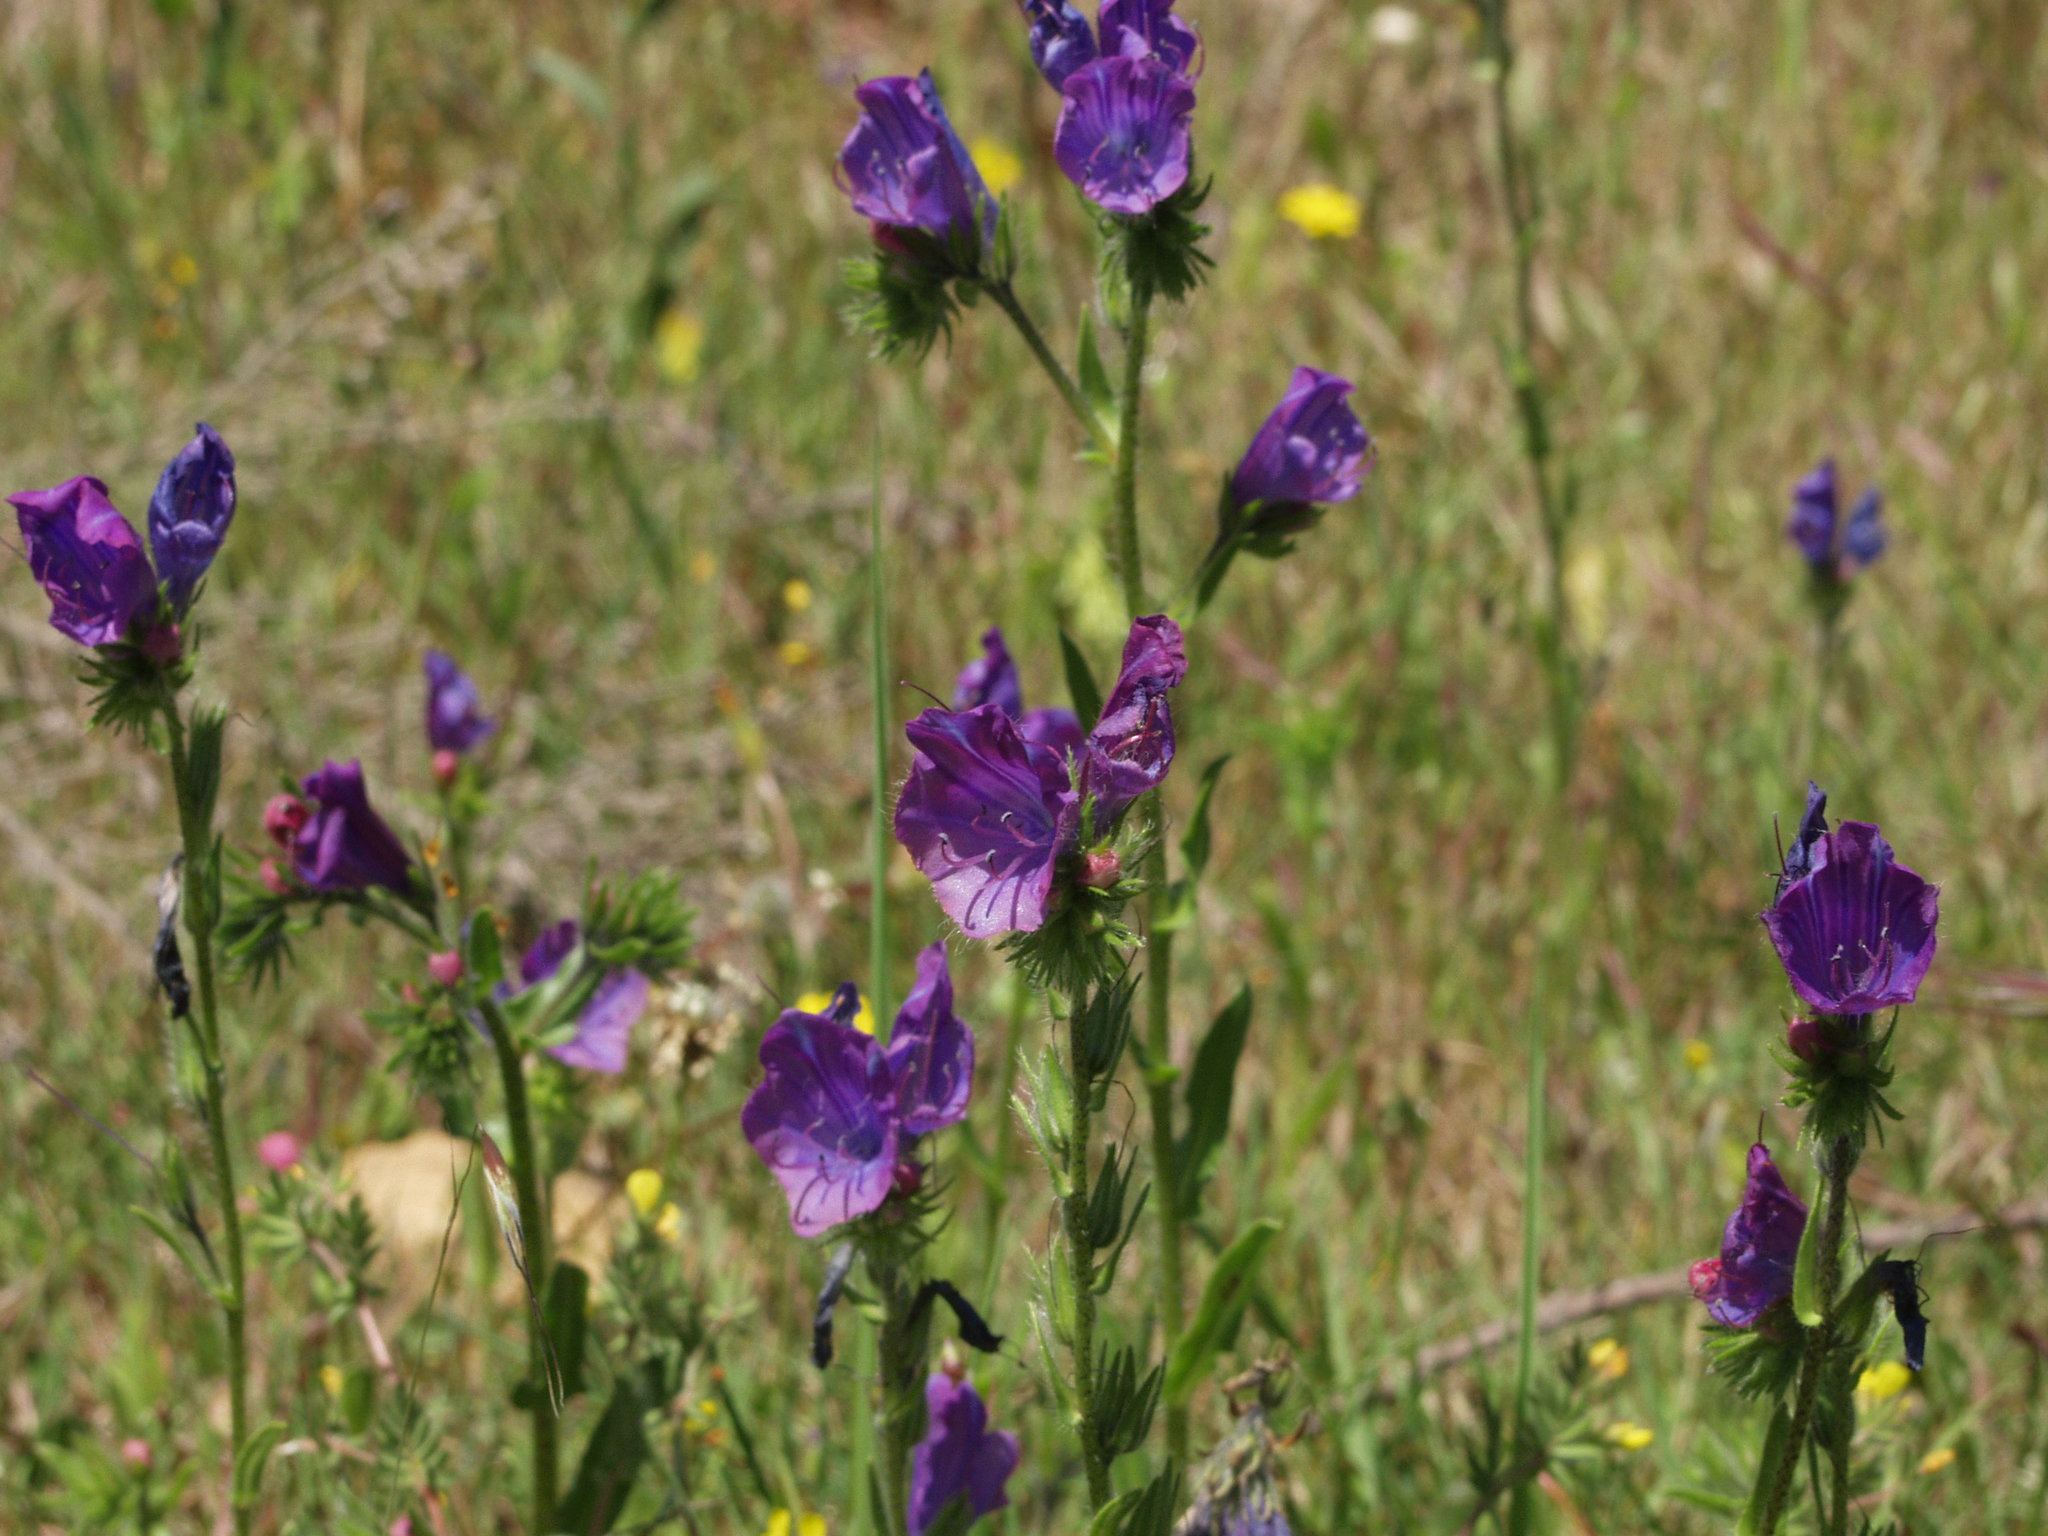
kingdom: Plantae
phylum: Tracheophyta
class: Magnoliopsida
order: Boraginales
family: Boraginaceae
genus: Echium
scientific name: Echium plantagineum
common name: Purple viper's-bugloss
